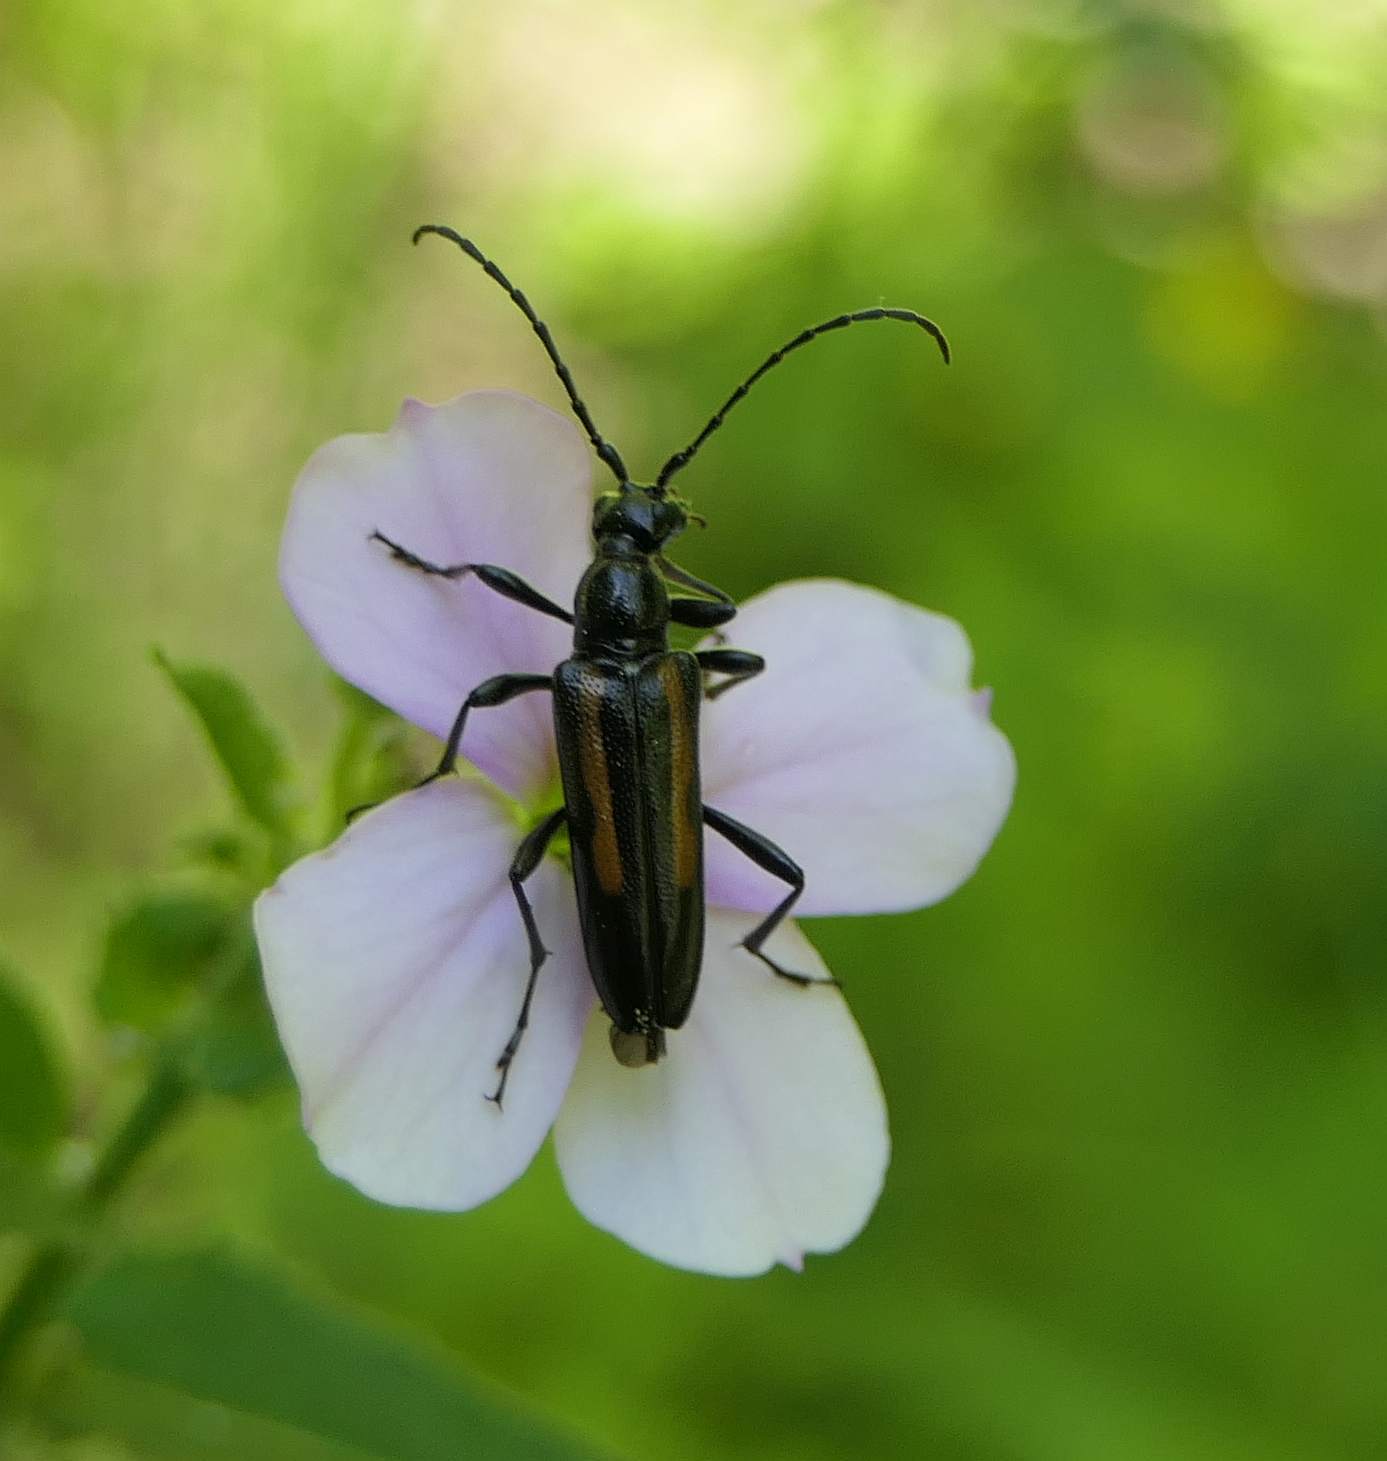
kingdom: Animalia
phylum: Arthropoda
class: Insecta
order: Coleoptera
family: Cerambycidae
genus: Strangalepta
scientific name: Strangalepta abbreviata
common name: Strangalepta flower longhorn beetle
